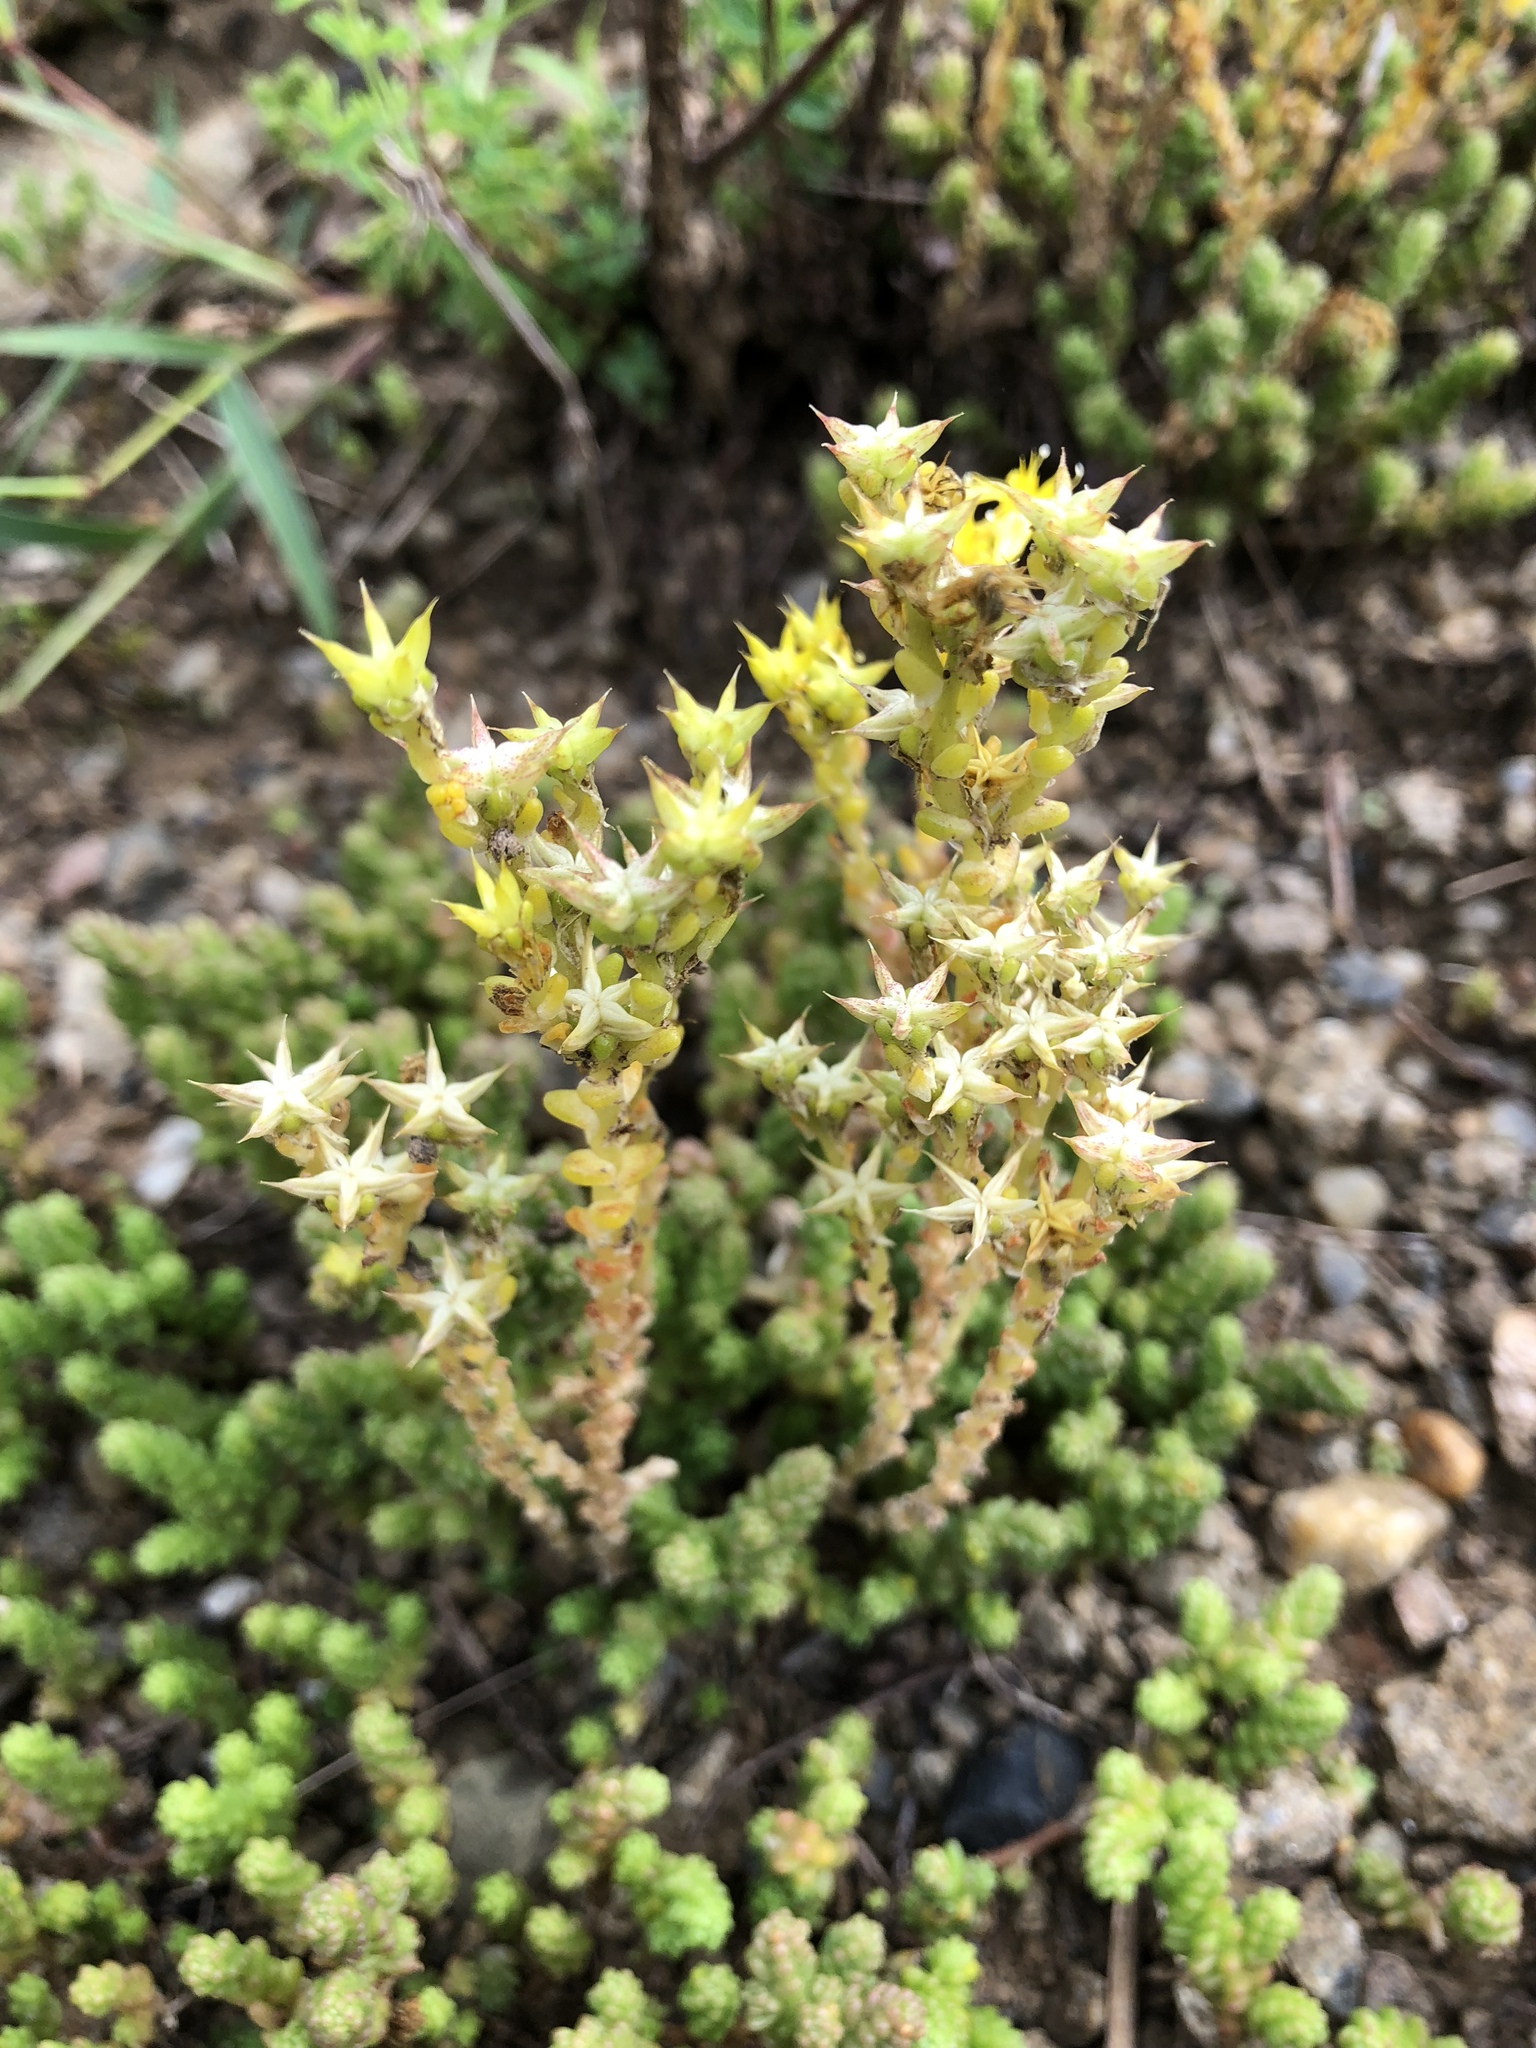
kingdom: Plantae
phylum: Tracheophyta
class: Magnoliopsida
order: Saxifragales
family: Crassulaceae
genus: Sedum
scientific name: Sedum acre
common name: Biting stonecrop
